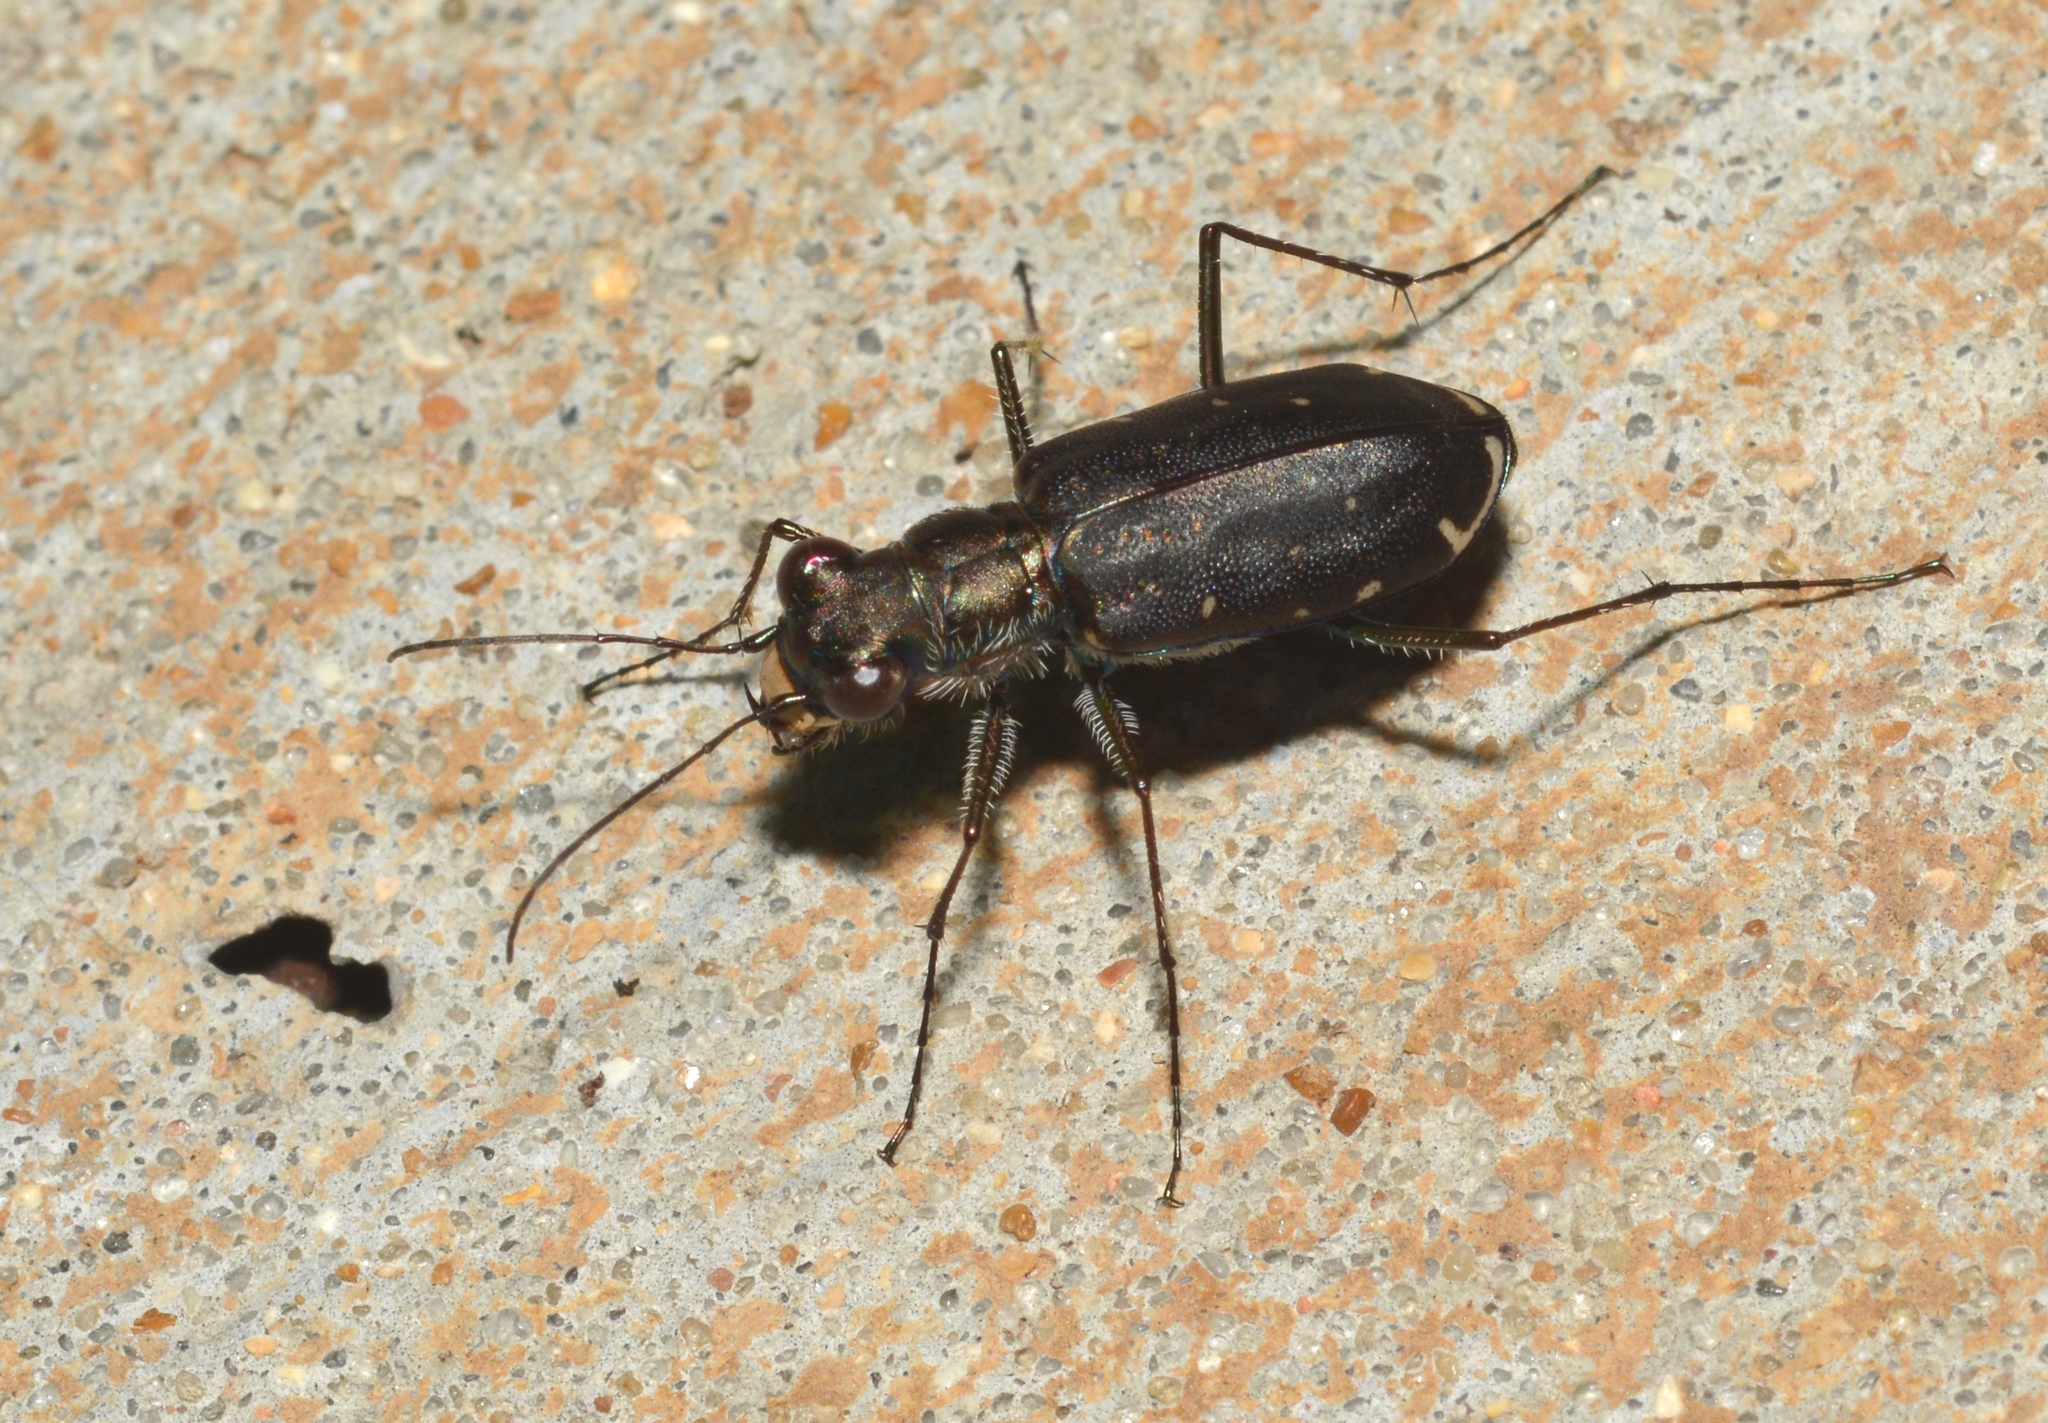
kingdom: Animalia
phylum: Arthropoda
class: Insecta
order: Coleoptera
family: Carabidae
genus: Cicindela
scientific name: Cicindela punctulata
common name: Punctured tiger beetle
